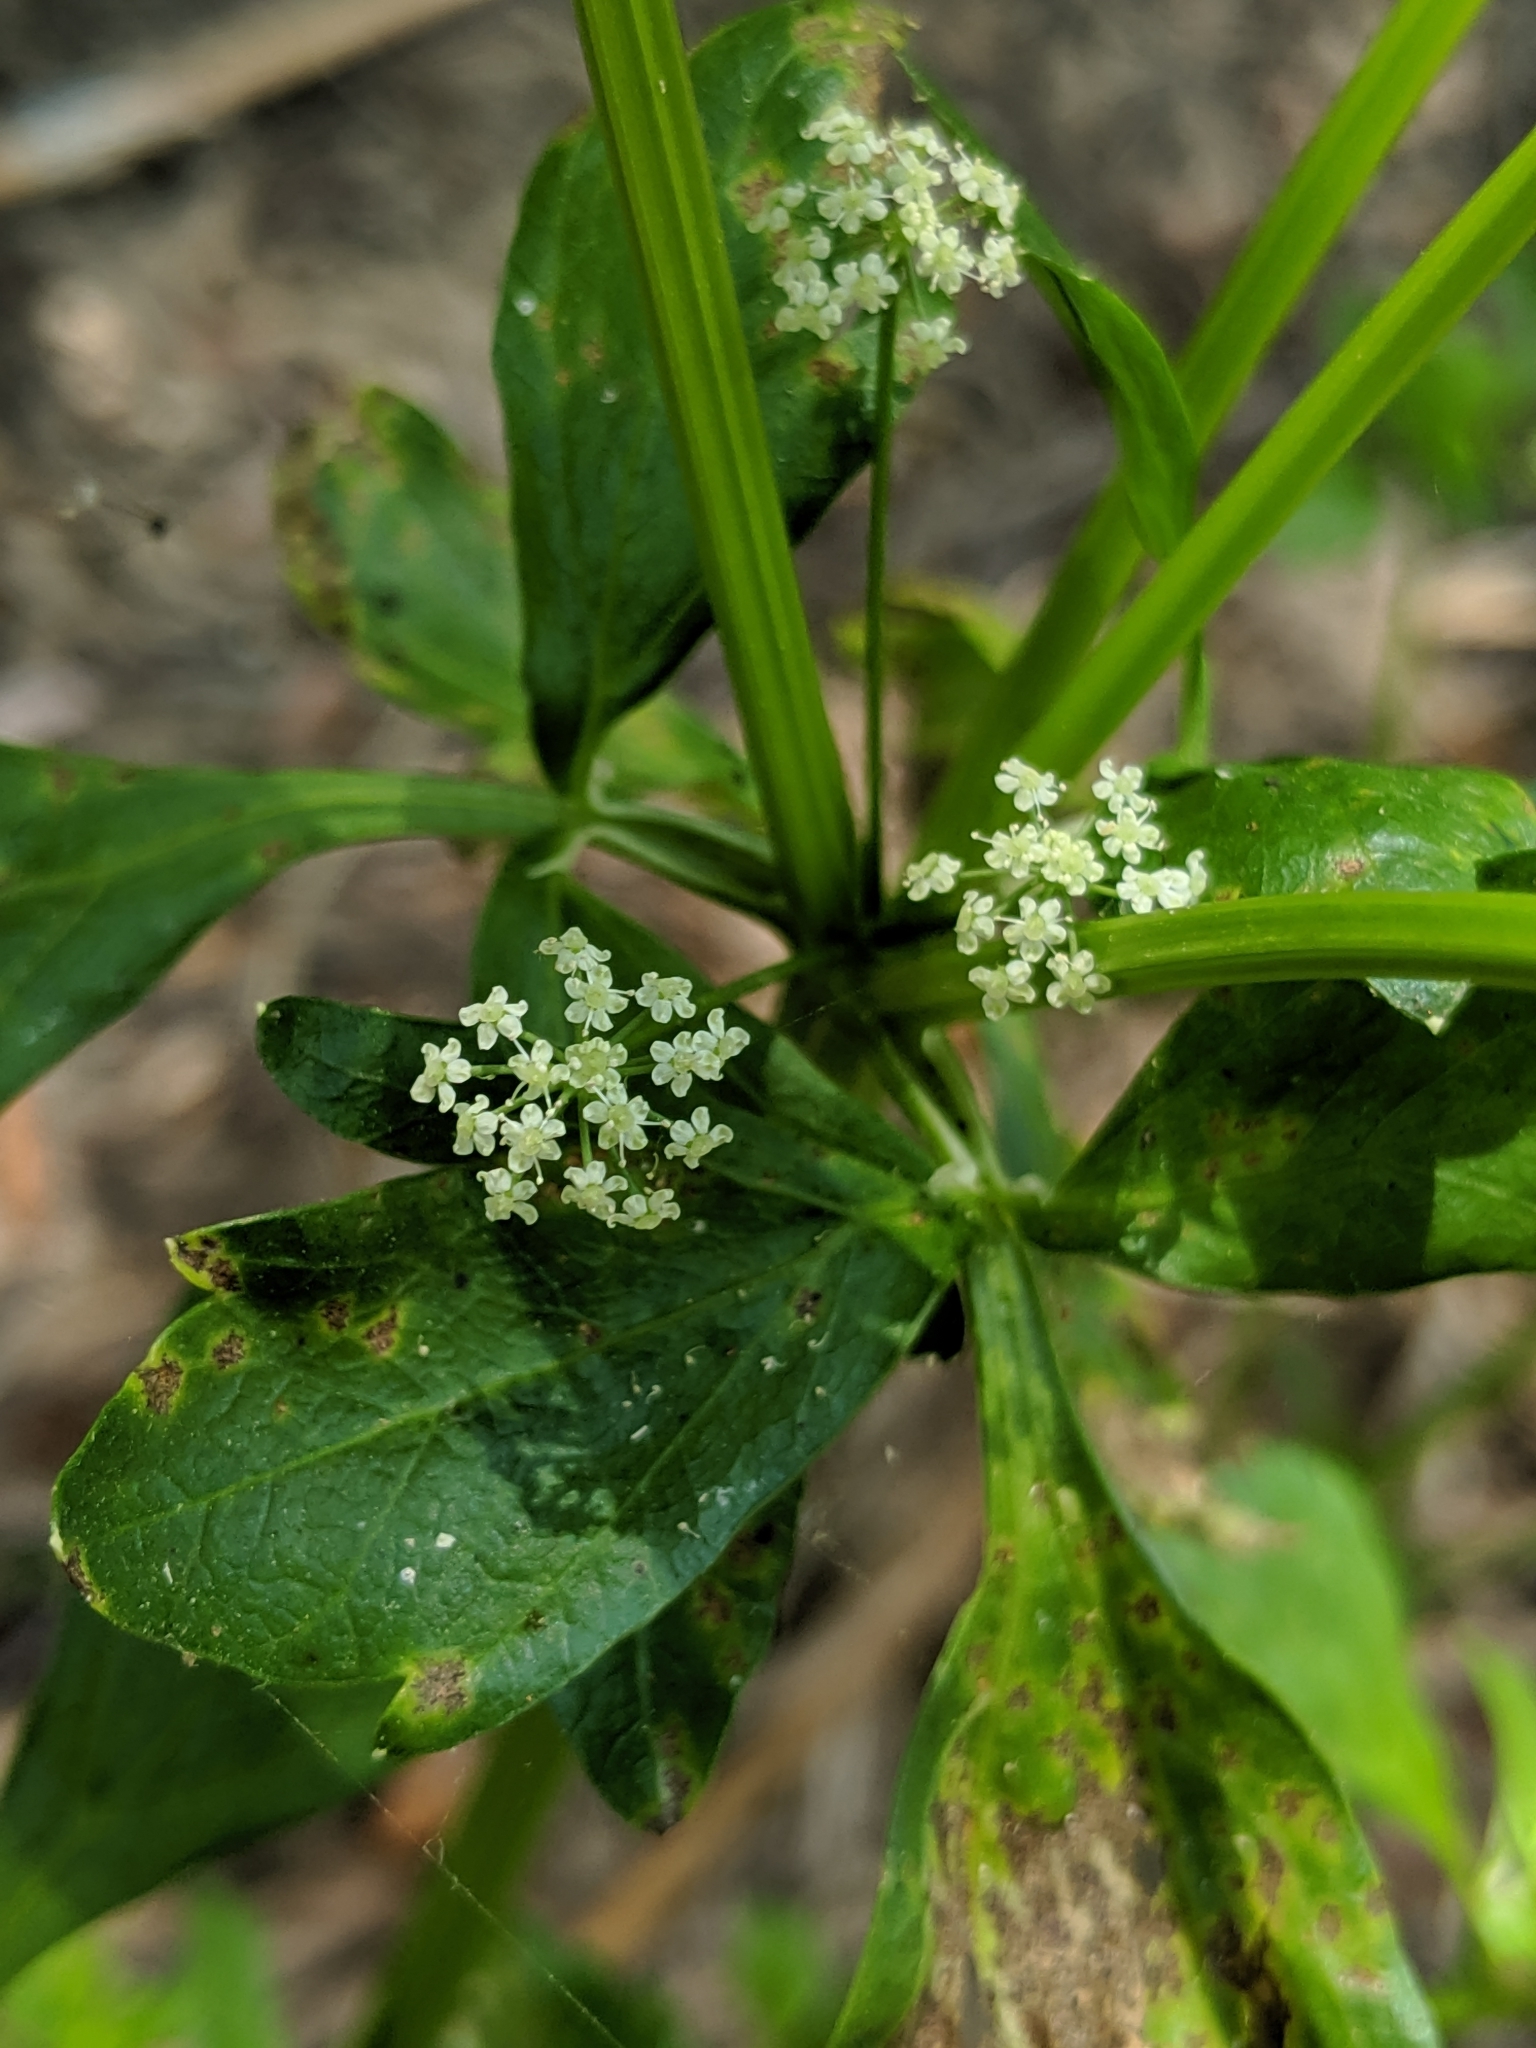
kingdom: Plantae
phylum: Tracheophyta
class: Magnoliopsida
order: Apiales
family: Apiaceae
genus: Oenanthe
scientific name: Oenanthe sarmentosa
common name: American water-parsley
